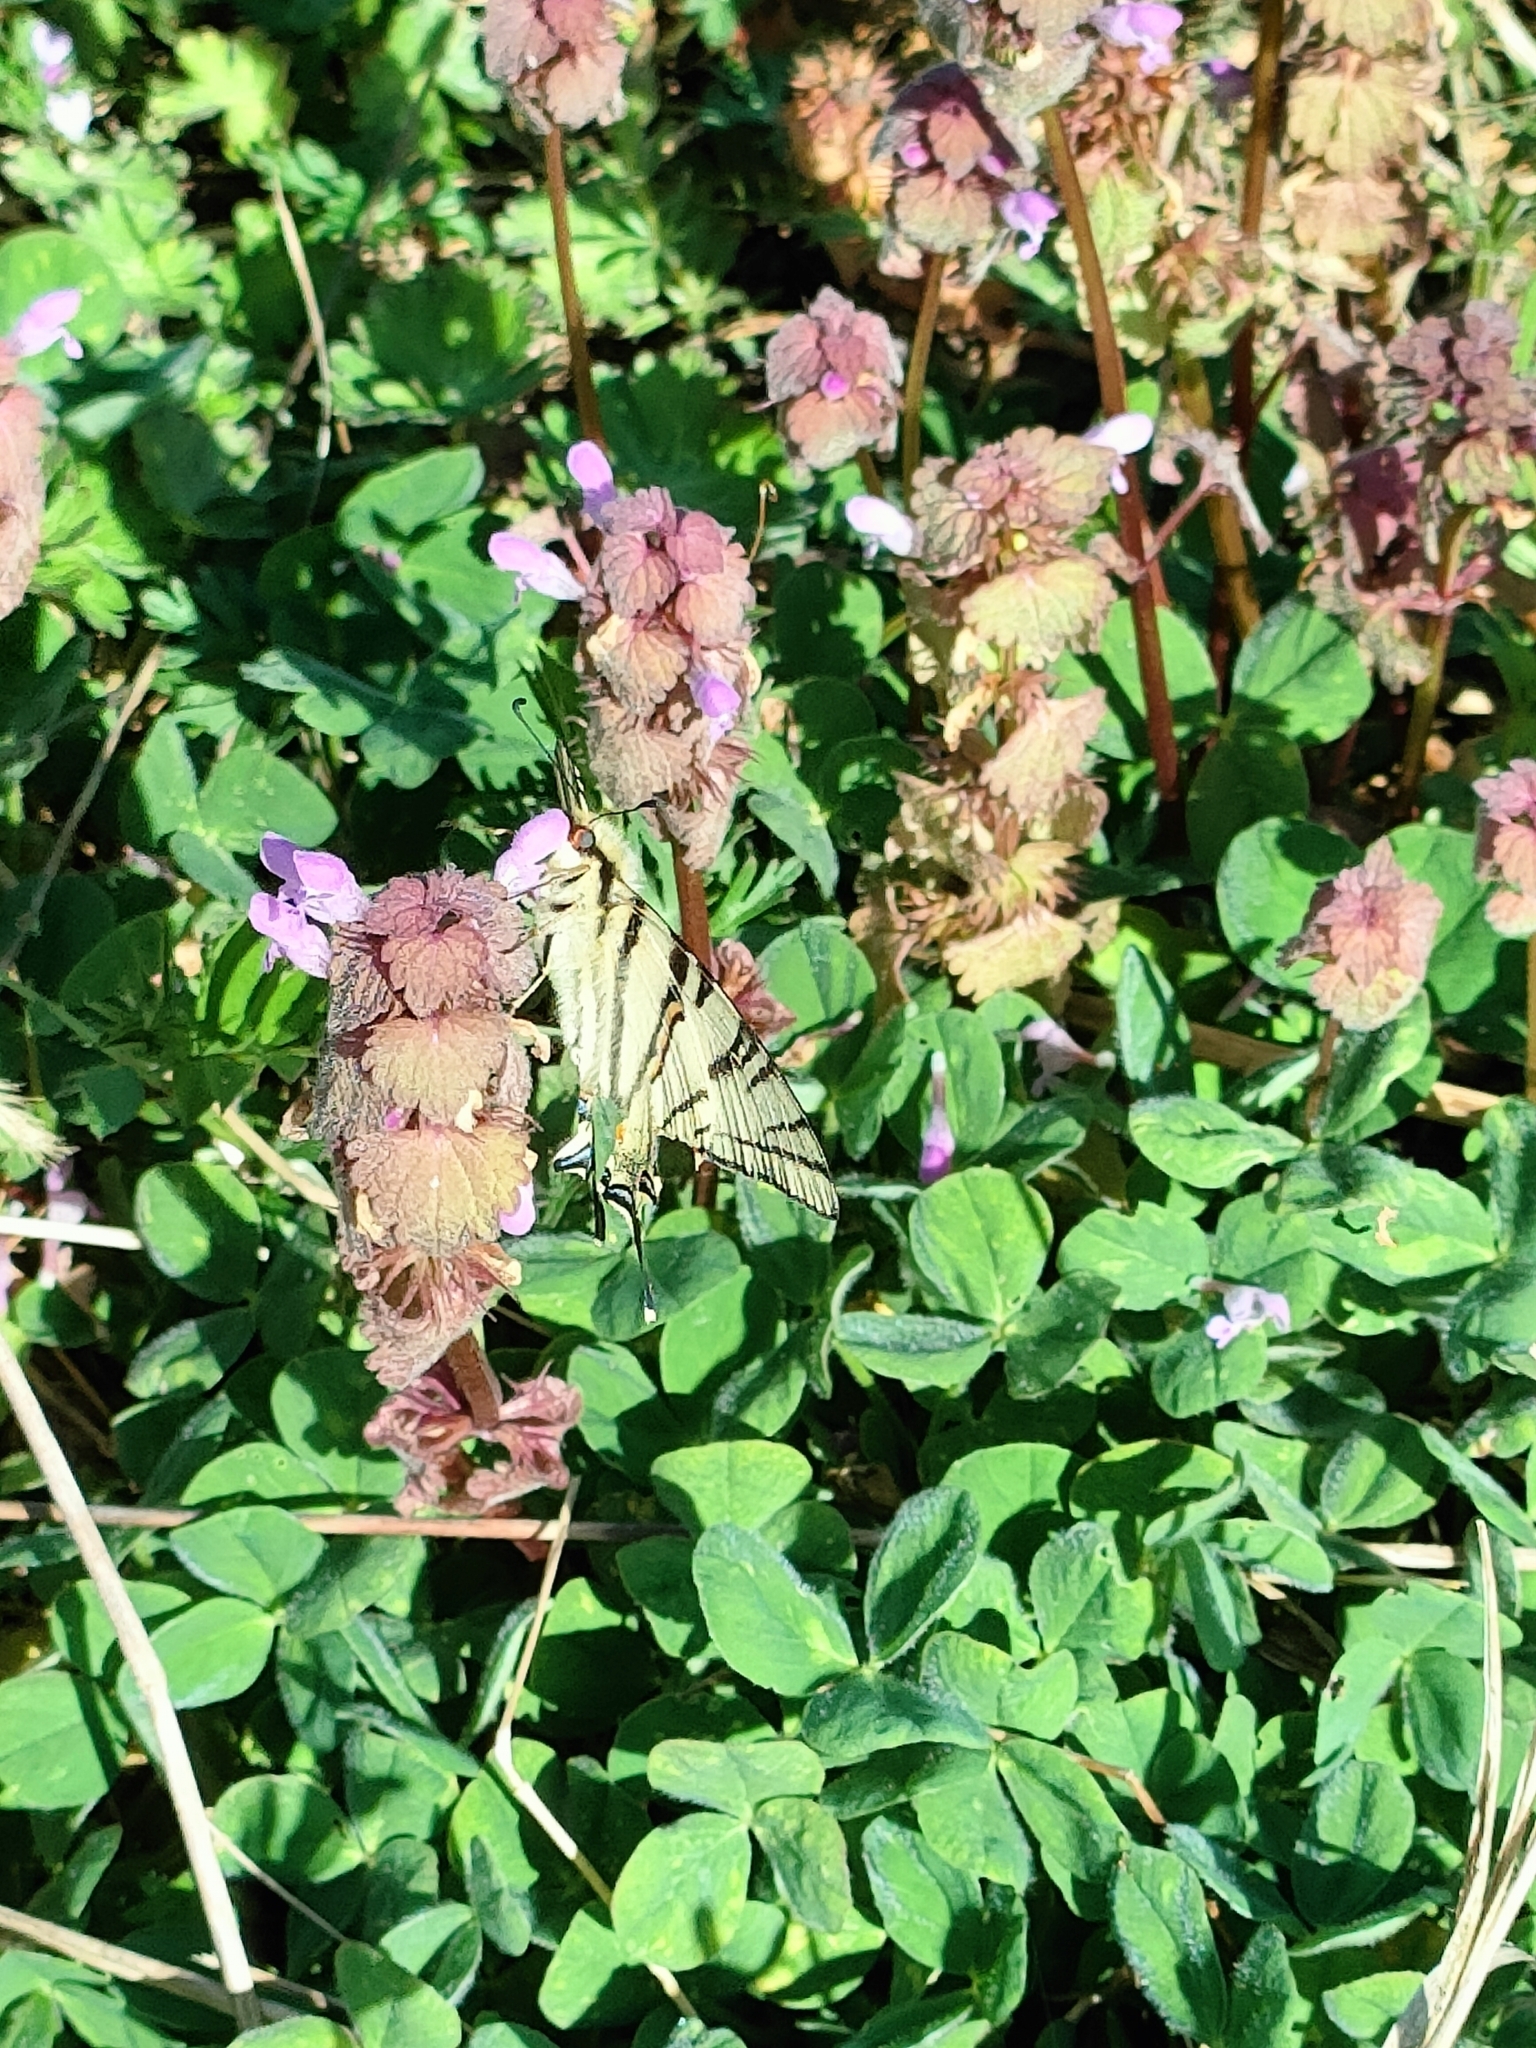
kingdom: Animalia
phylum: Arthropoda
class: Insecta
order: Lepidoptera
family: Papilionidae
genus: Iphiclides
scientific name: Iphiclides podalirius
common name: Scarce swallowtail
